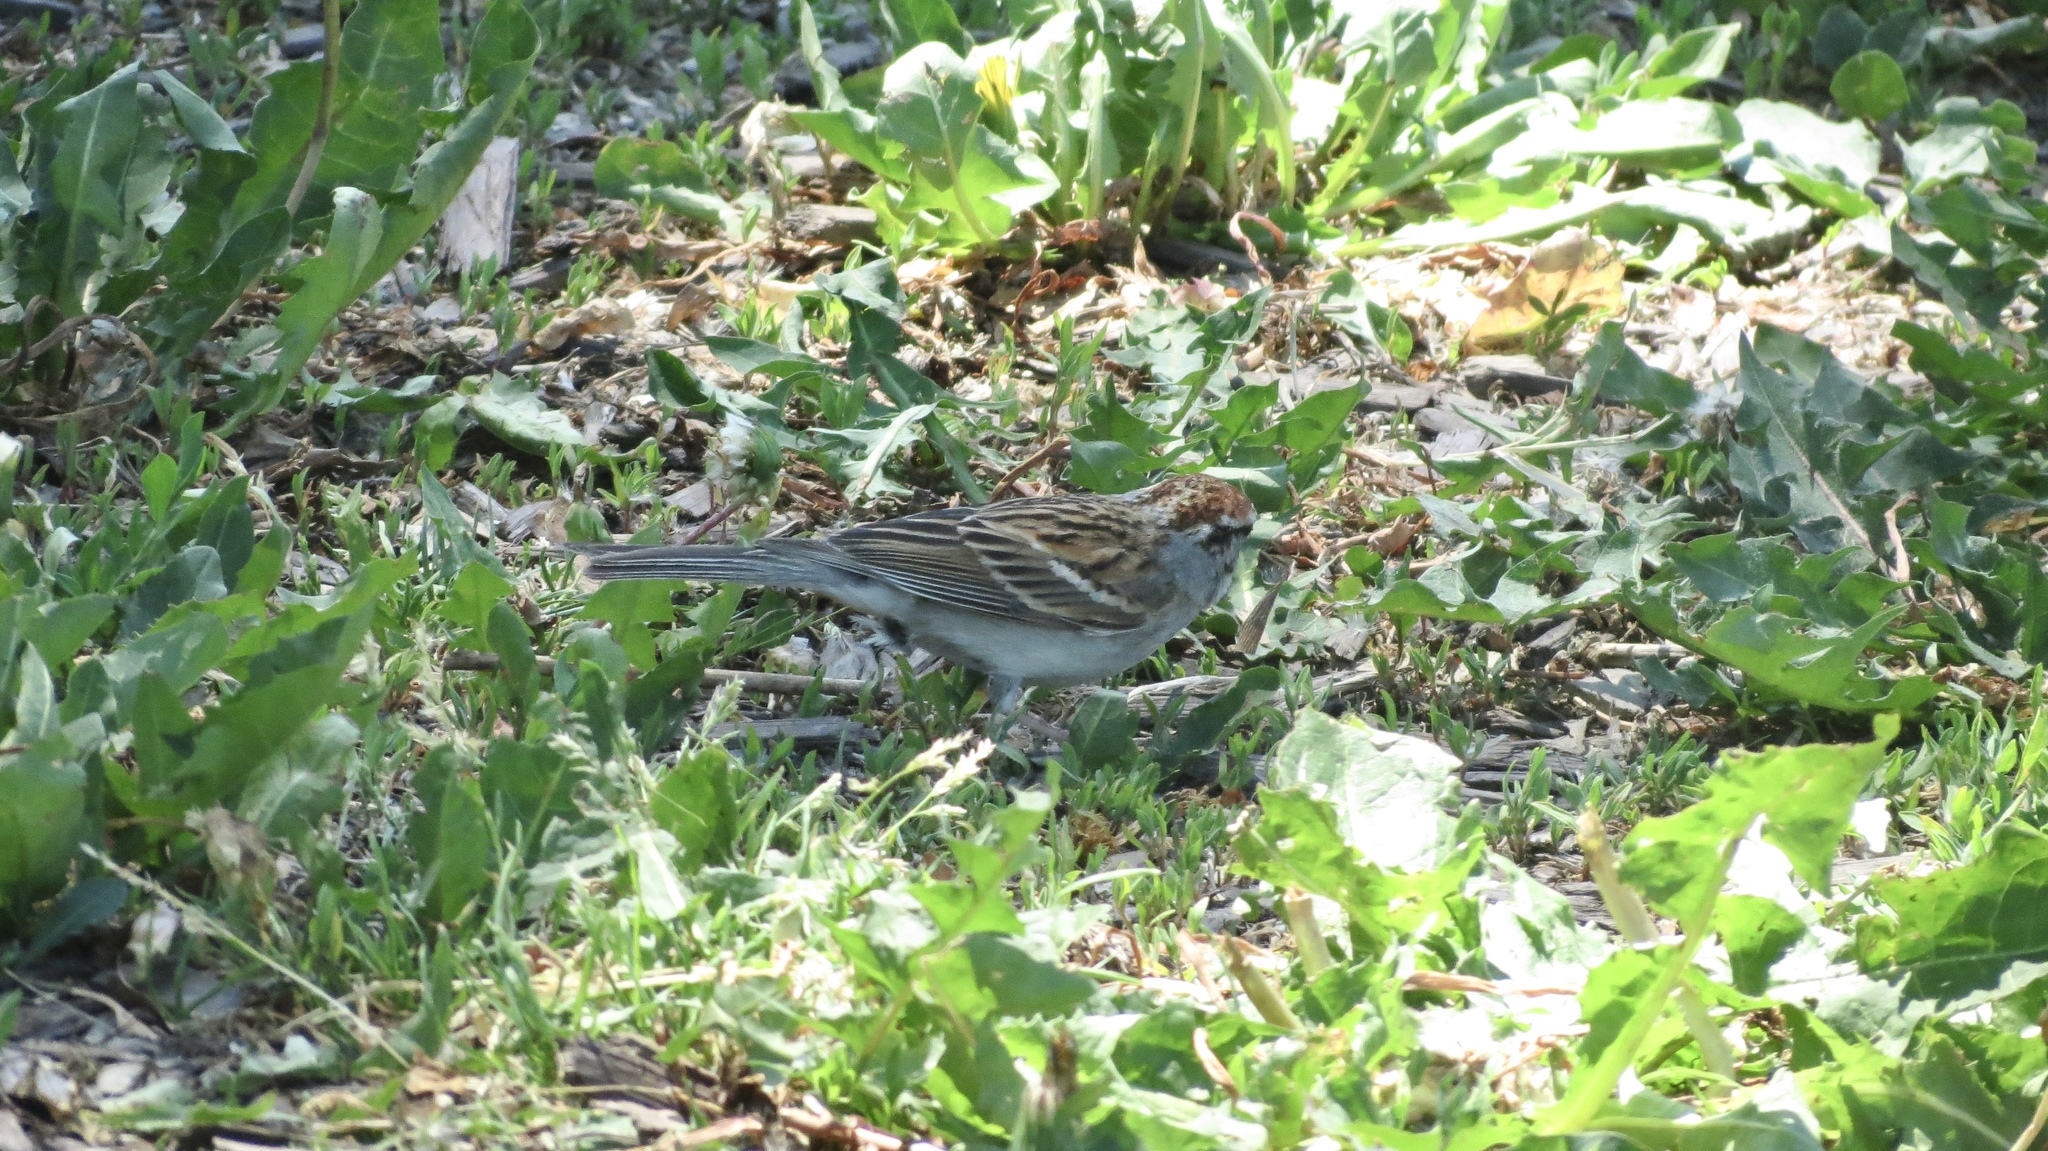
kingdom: Animalia
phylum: Chordata
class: Aves
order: Passeriformes
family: Passerellidae
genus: Spizella
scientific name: Spizella passerina
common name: Chipping sparrow
